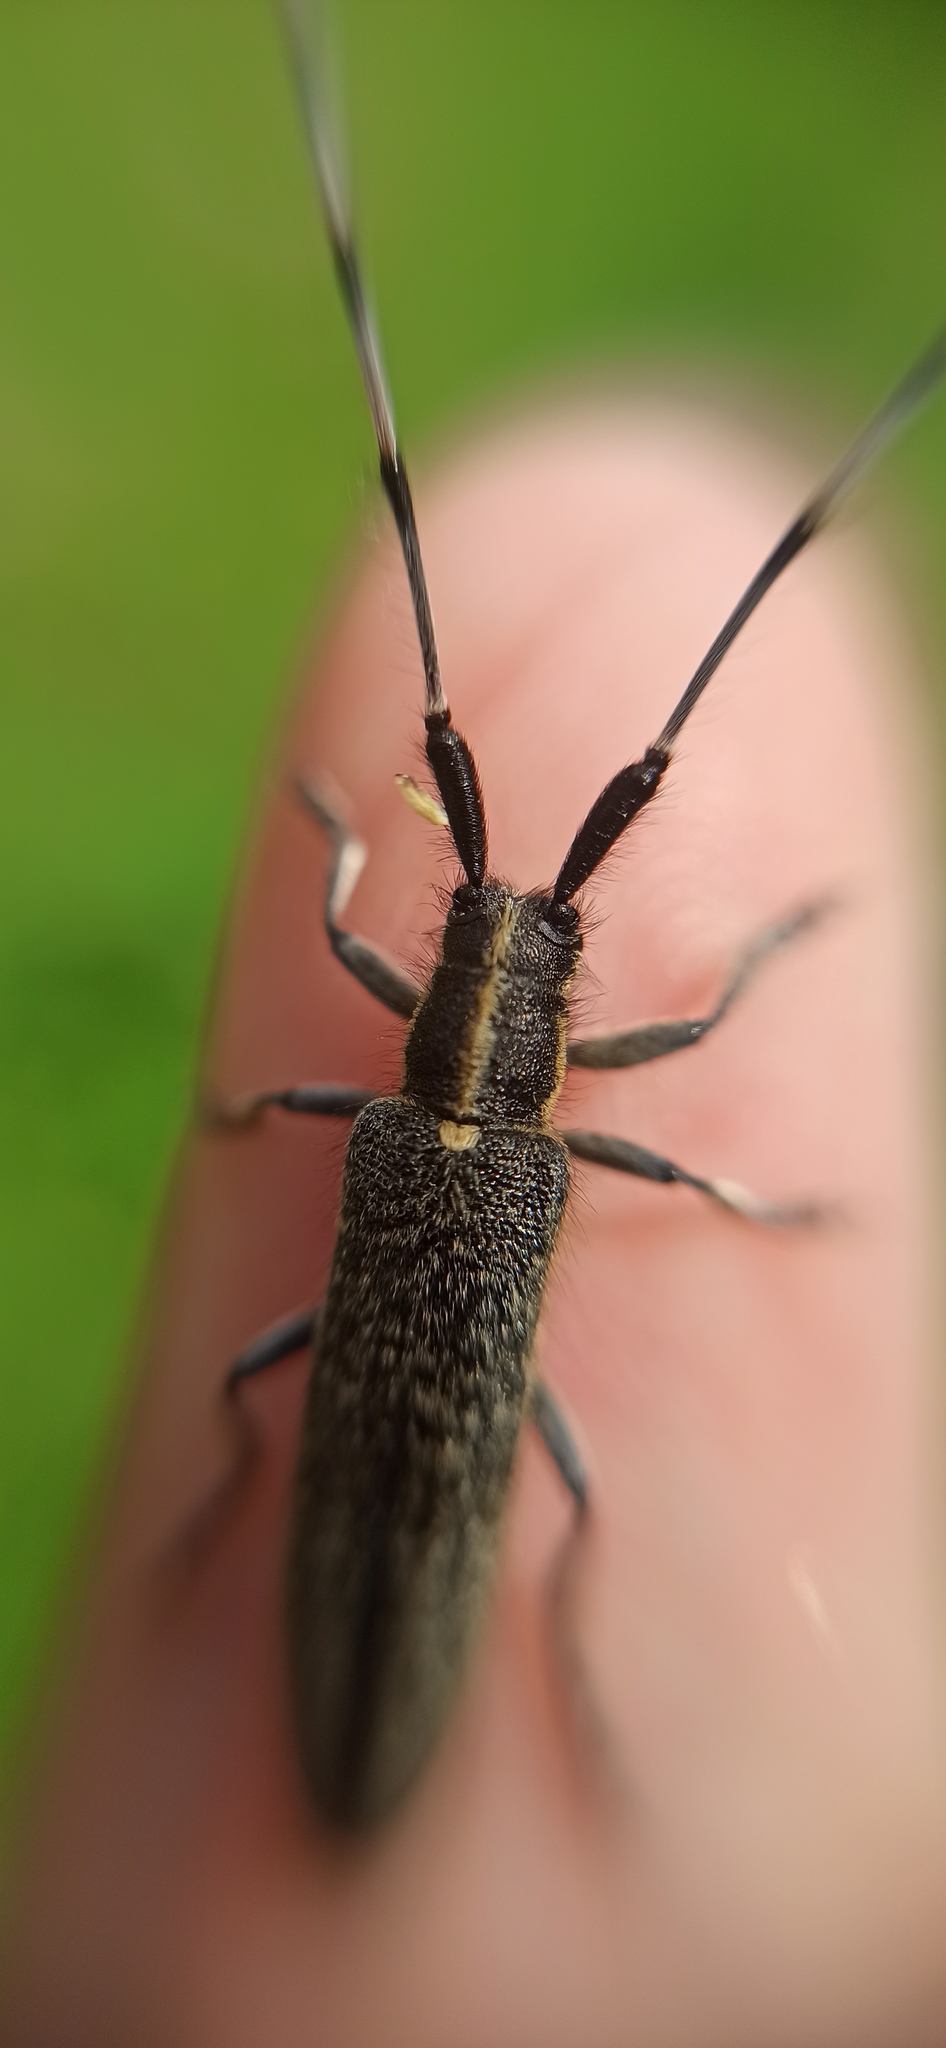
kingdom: Animalia
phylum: Arthropoda
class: Insecta
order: Coleoptera
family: Cerambycidae
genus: Agapanthia
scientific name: Agapanthia villosoviridescens
